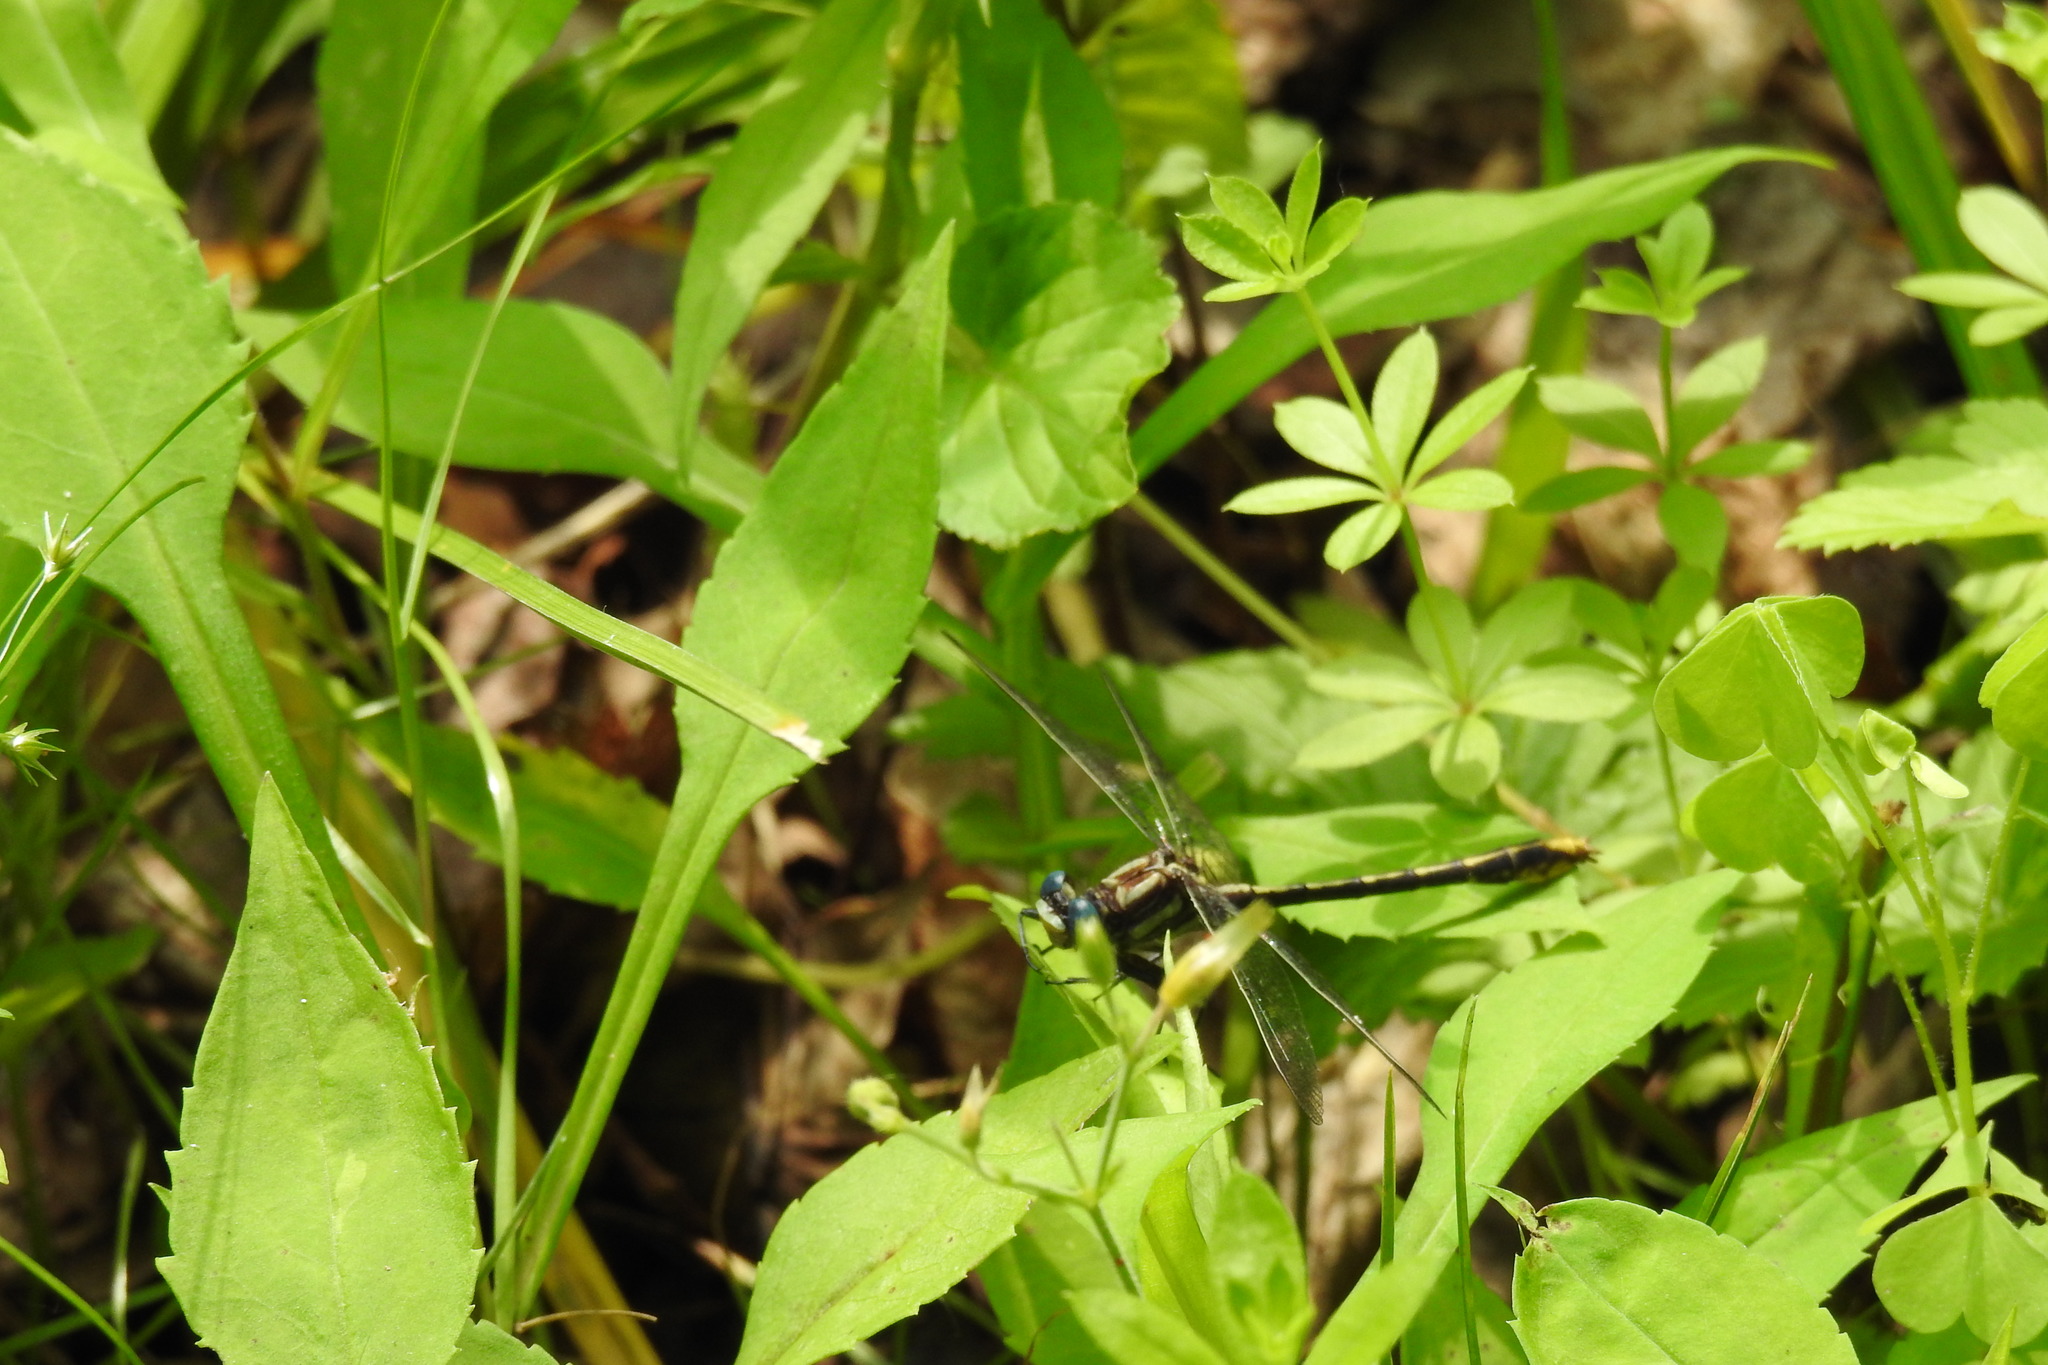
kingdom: Animalia
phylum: Arthropoda
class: Insecta
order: Odonata
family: Gomphidae
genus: Phanogomphus
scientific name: Phanogomphus exilis
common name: Lancet clubtail
